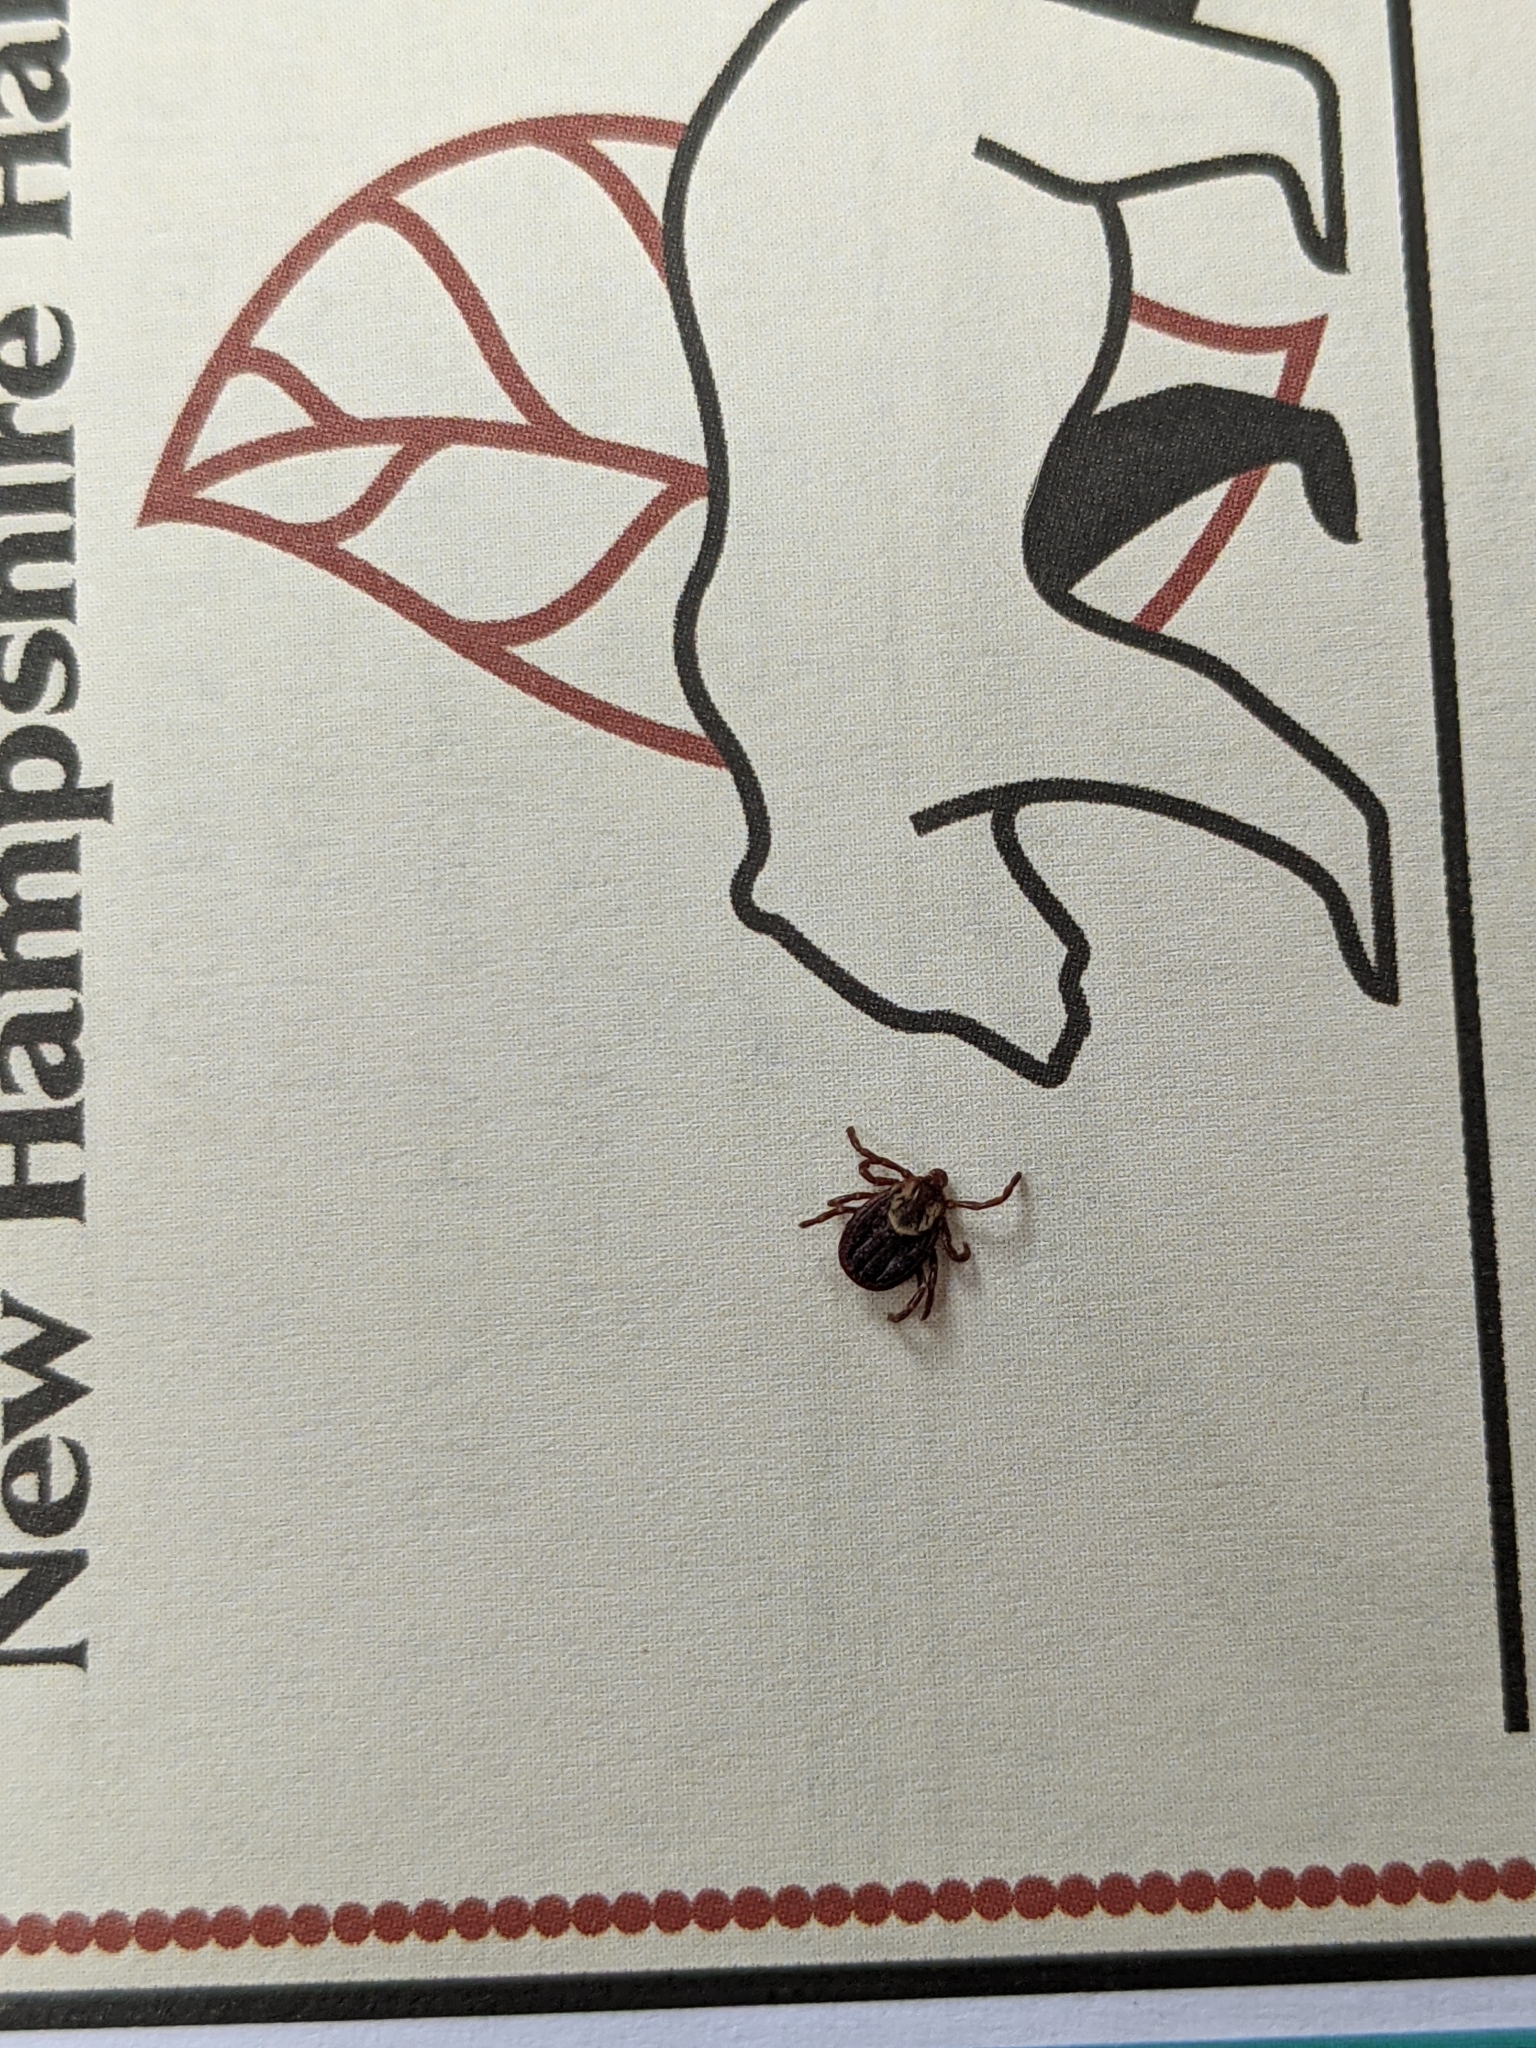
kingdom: Animalia
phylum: Arthropoda
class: Arachnida
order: Ixodida
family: Ixodidae
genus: Dermacentor
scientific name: Dermacentor variabilis
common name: American dog tick
